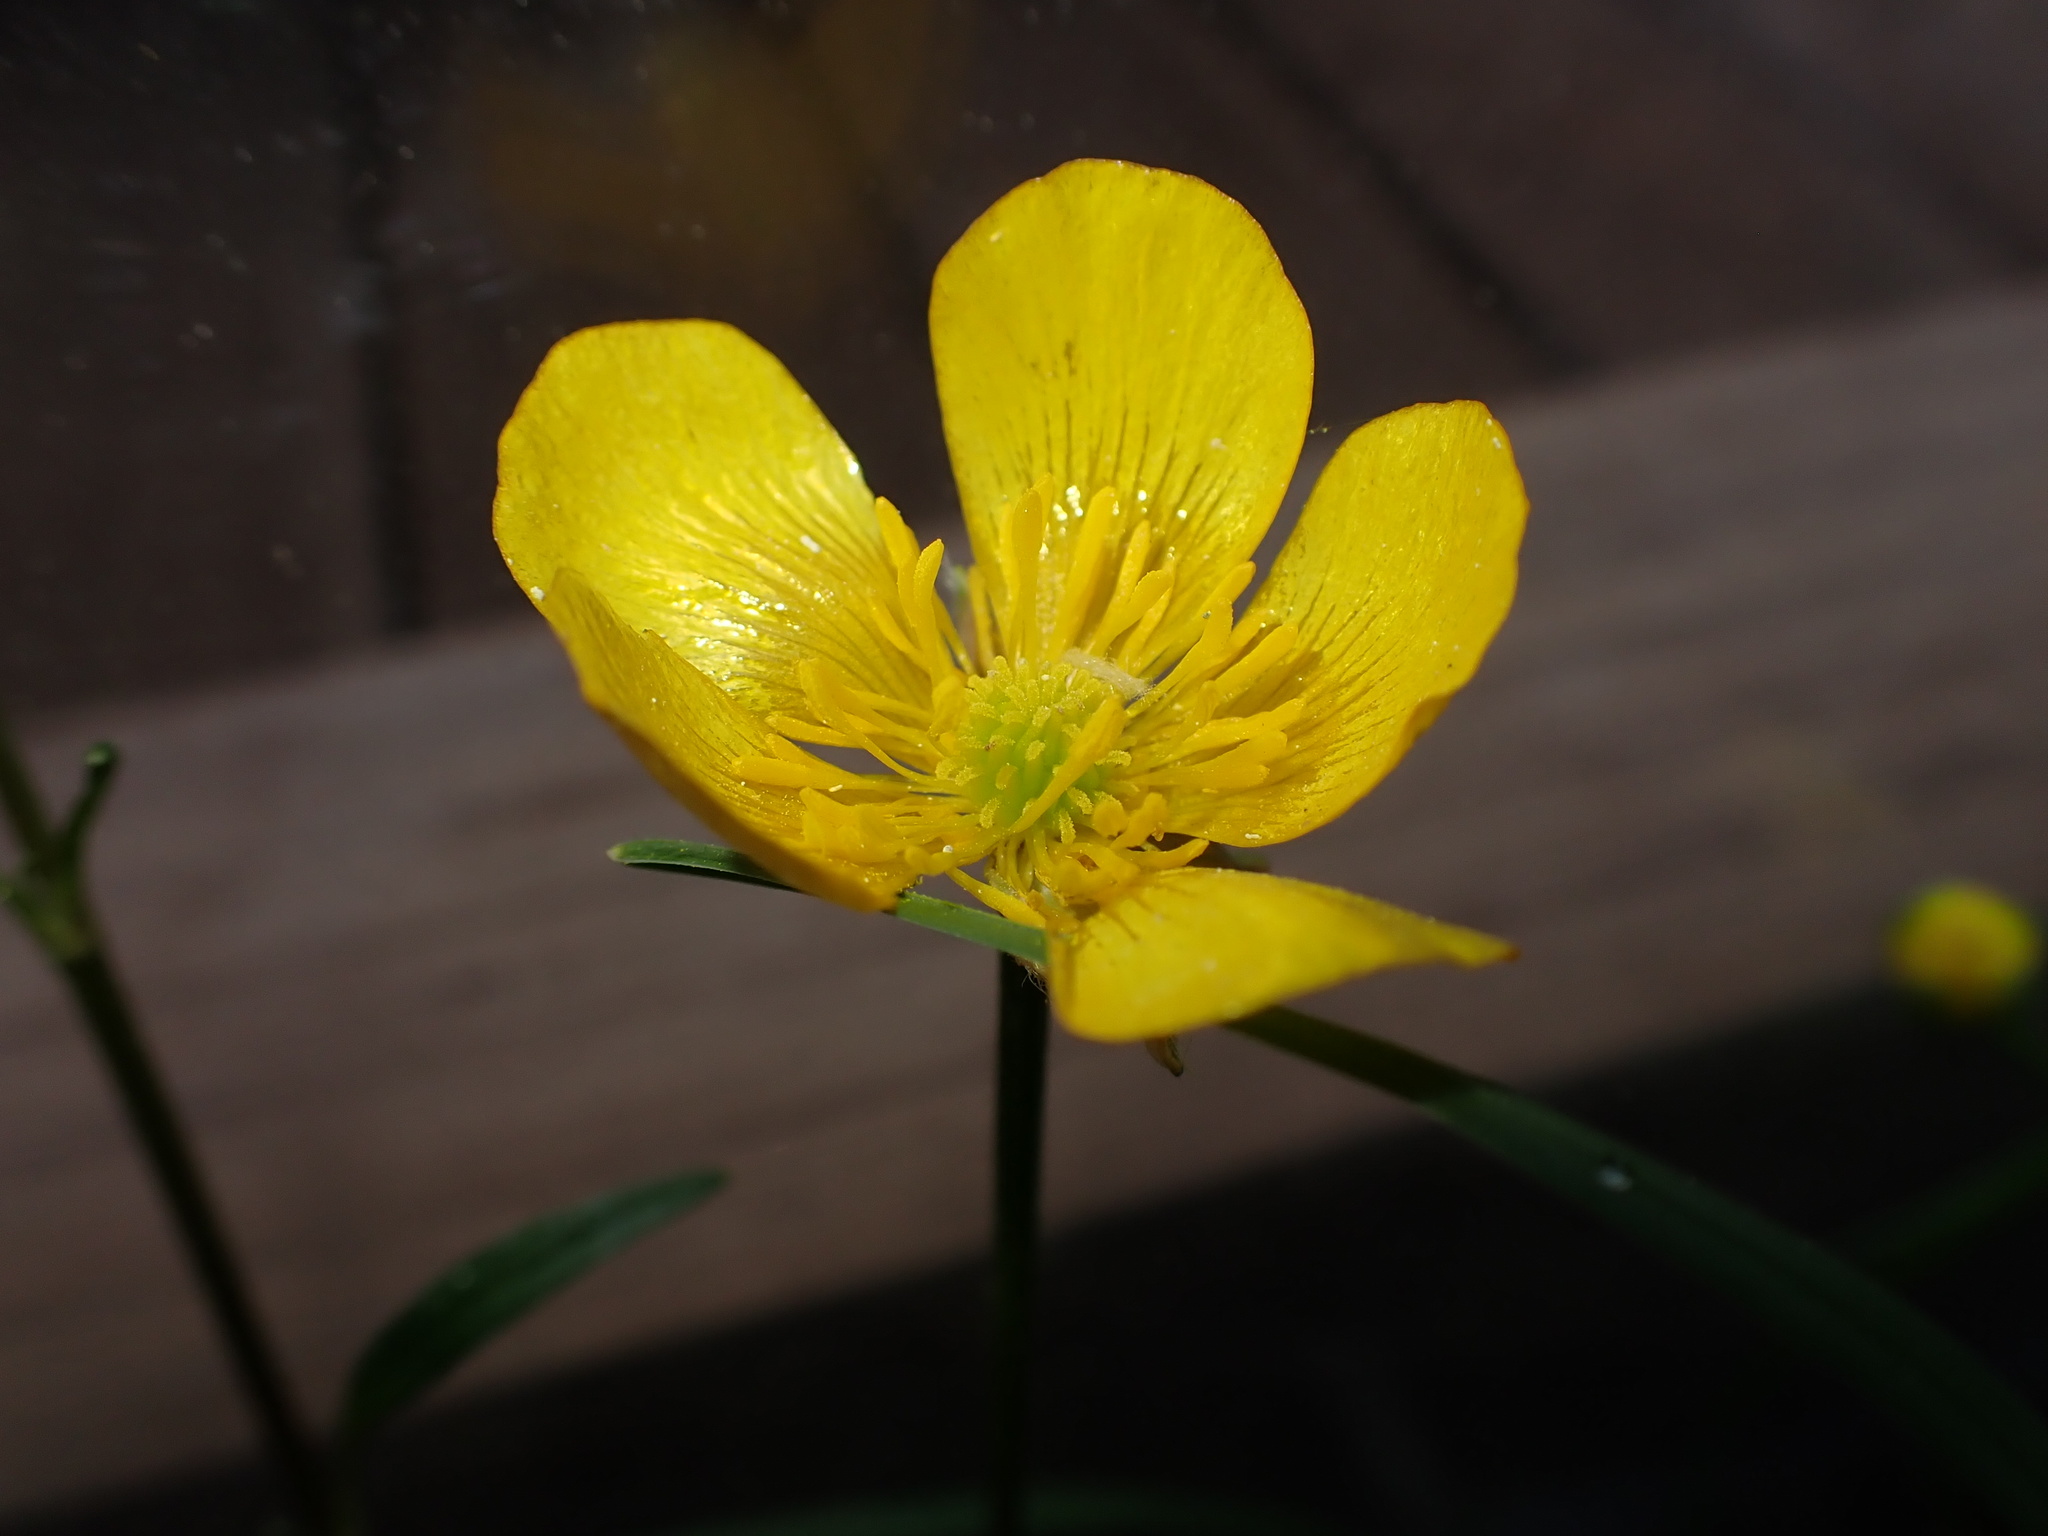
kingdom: Plantae
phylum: Tracheophyta
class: Magnoliopsida
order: Ranunculales
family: Ranunculaceae
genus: Ranunculus
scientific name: Ranunculus repens
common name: Creeping buttercup
